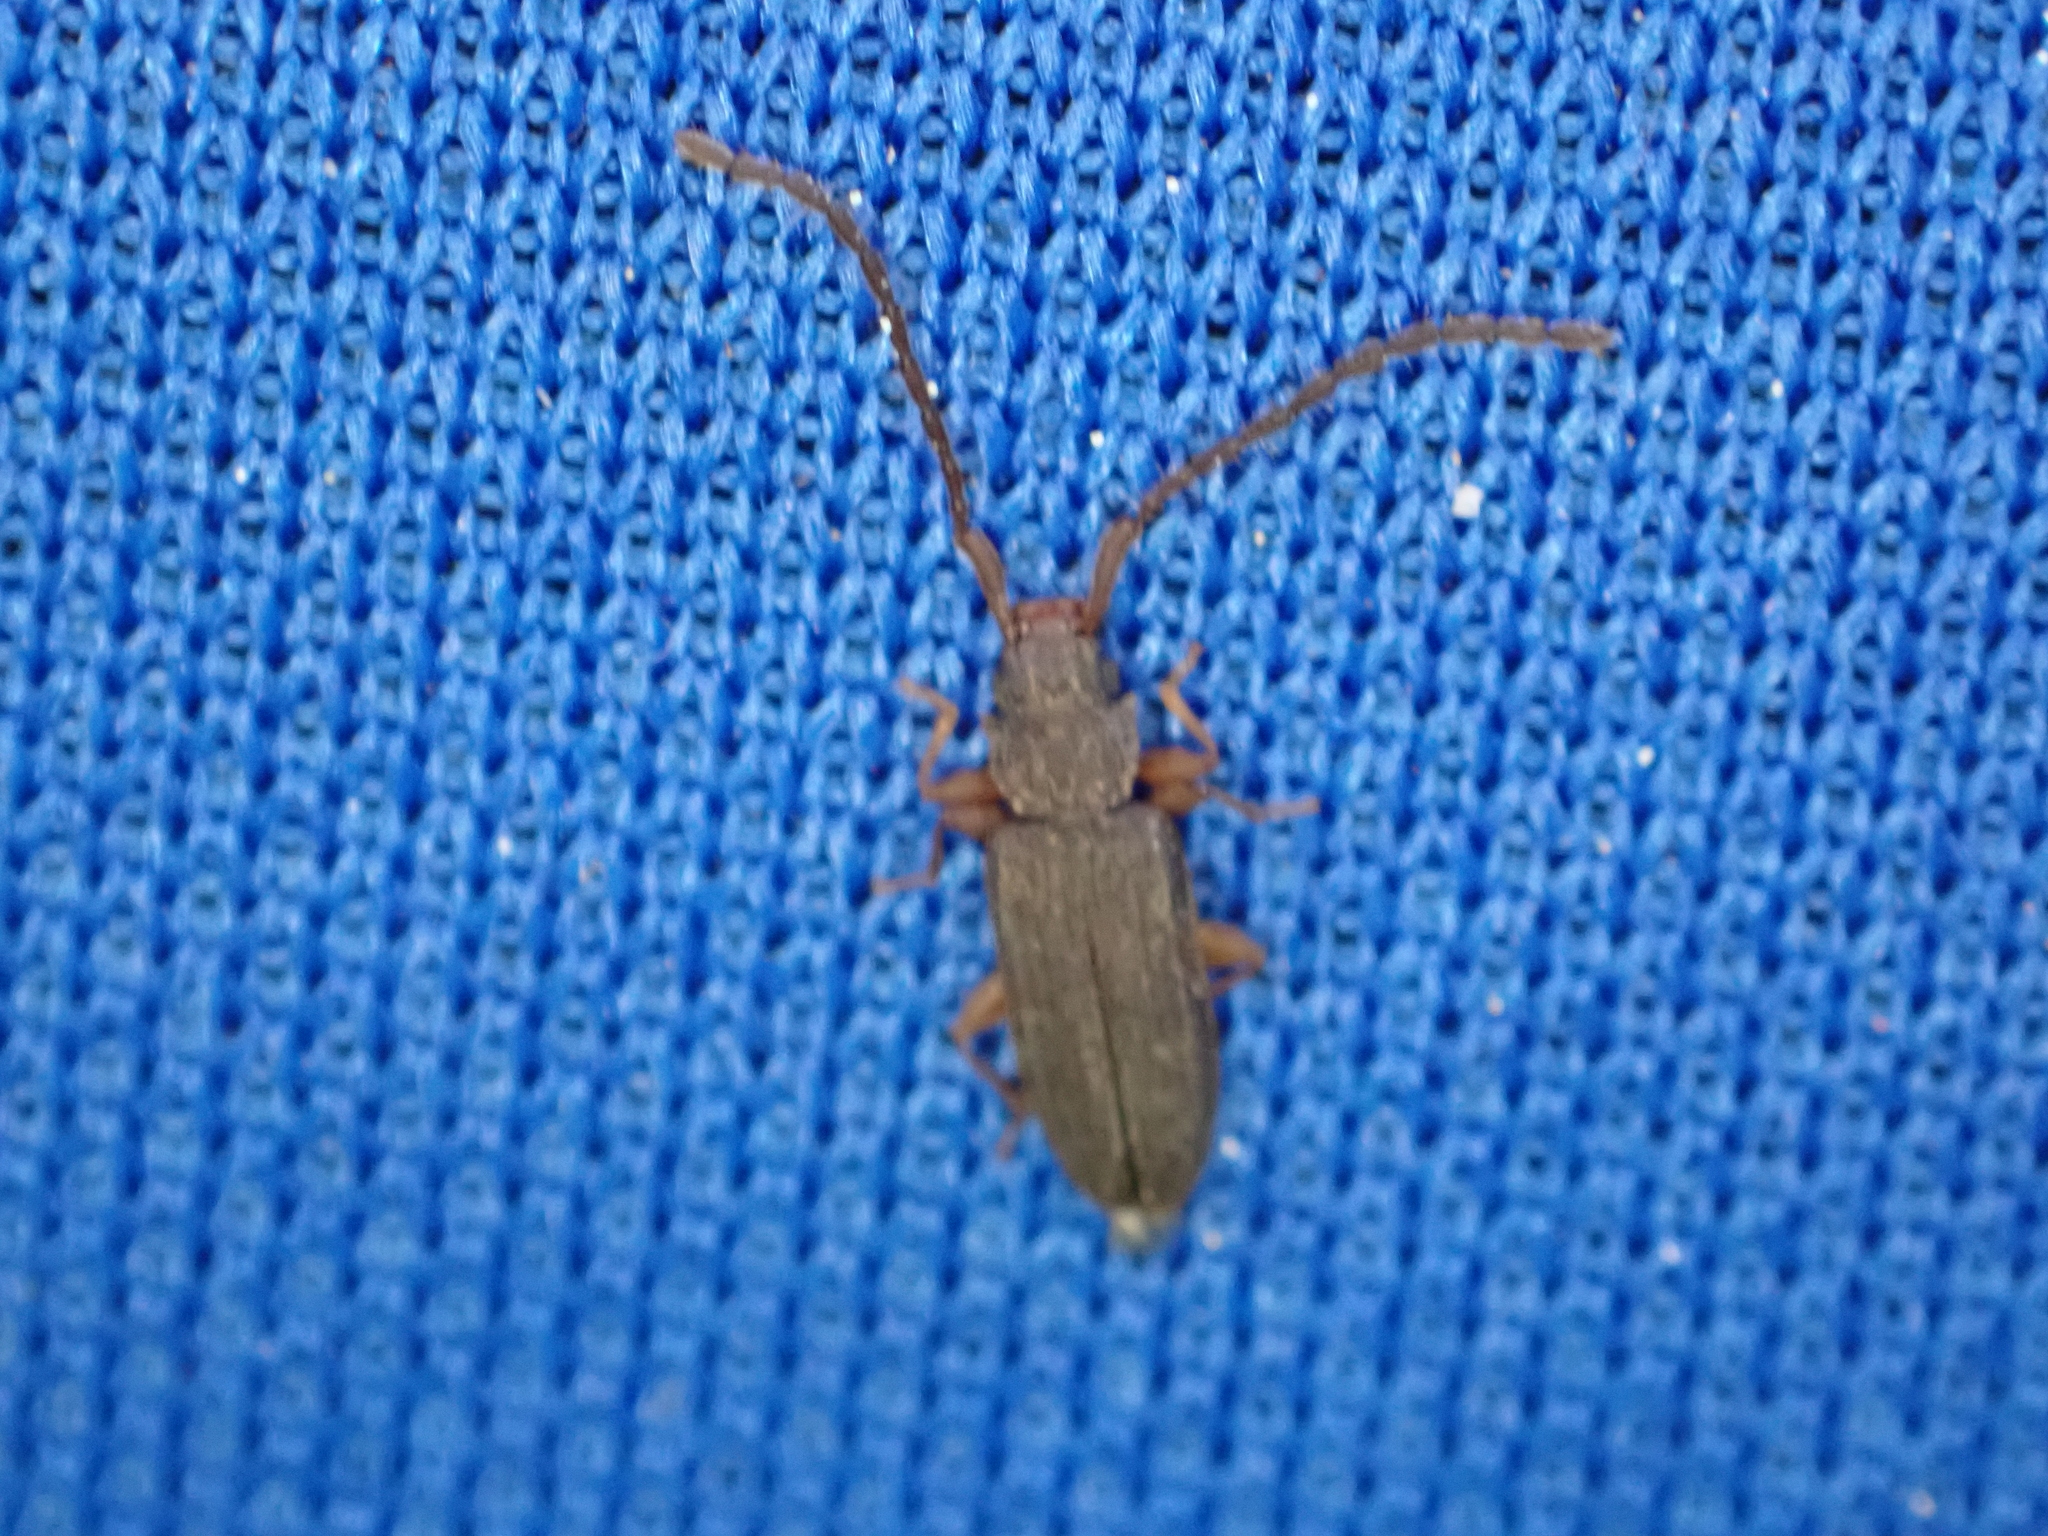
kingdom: Animalia
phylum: Arthropoda
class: Insecta
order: Coleoptera
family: Silvanidae
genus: Uleiota
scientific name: Uleiota planatus
